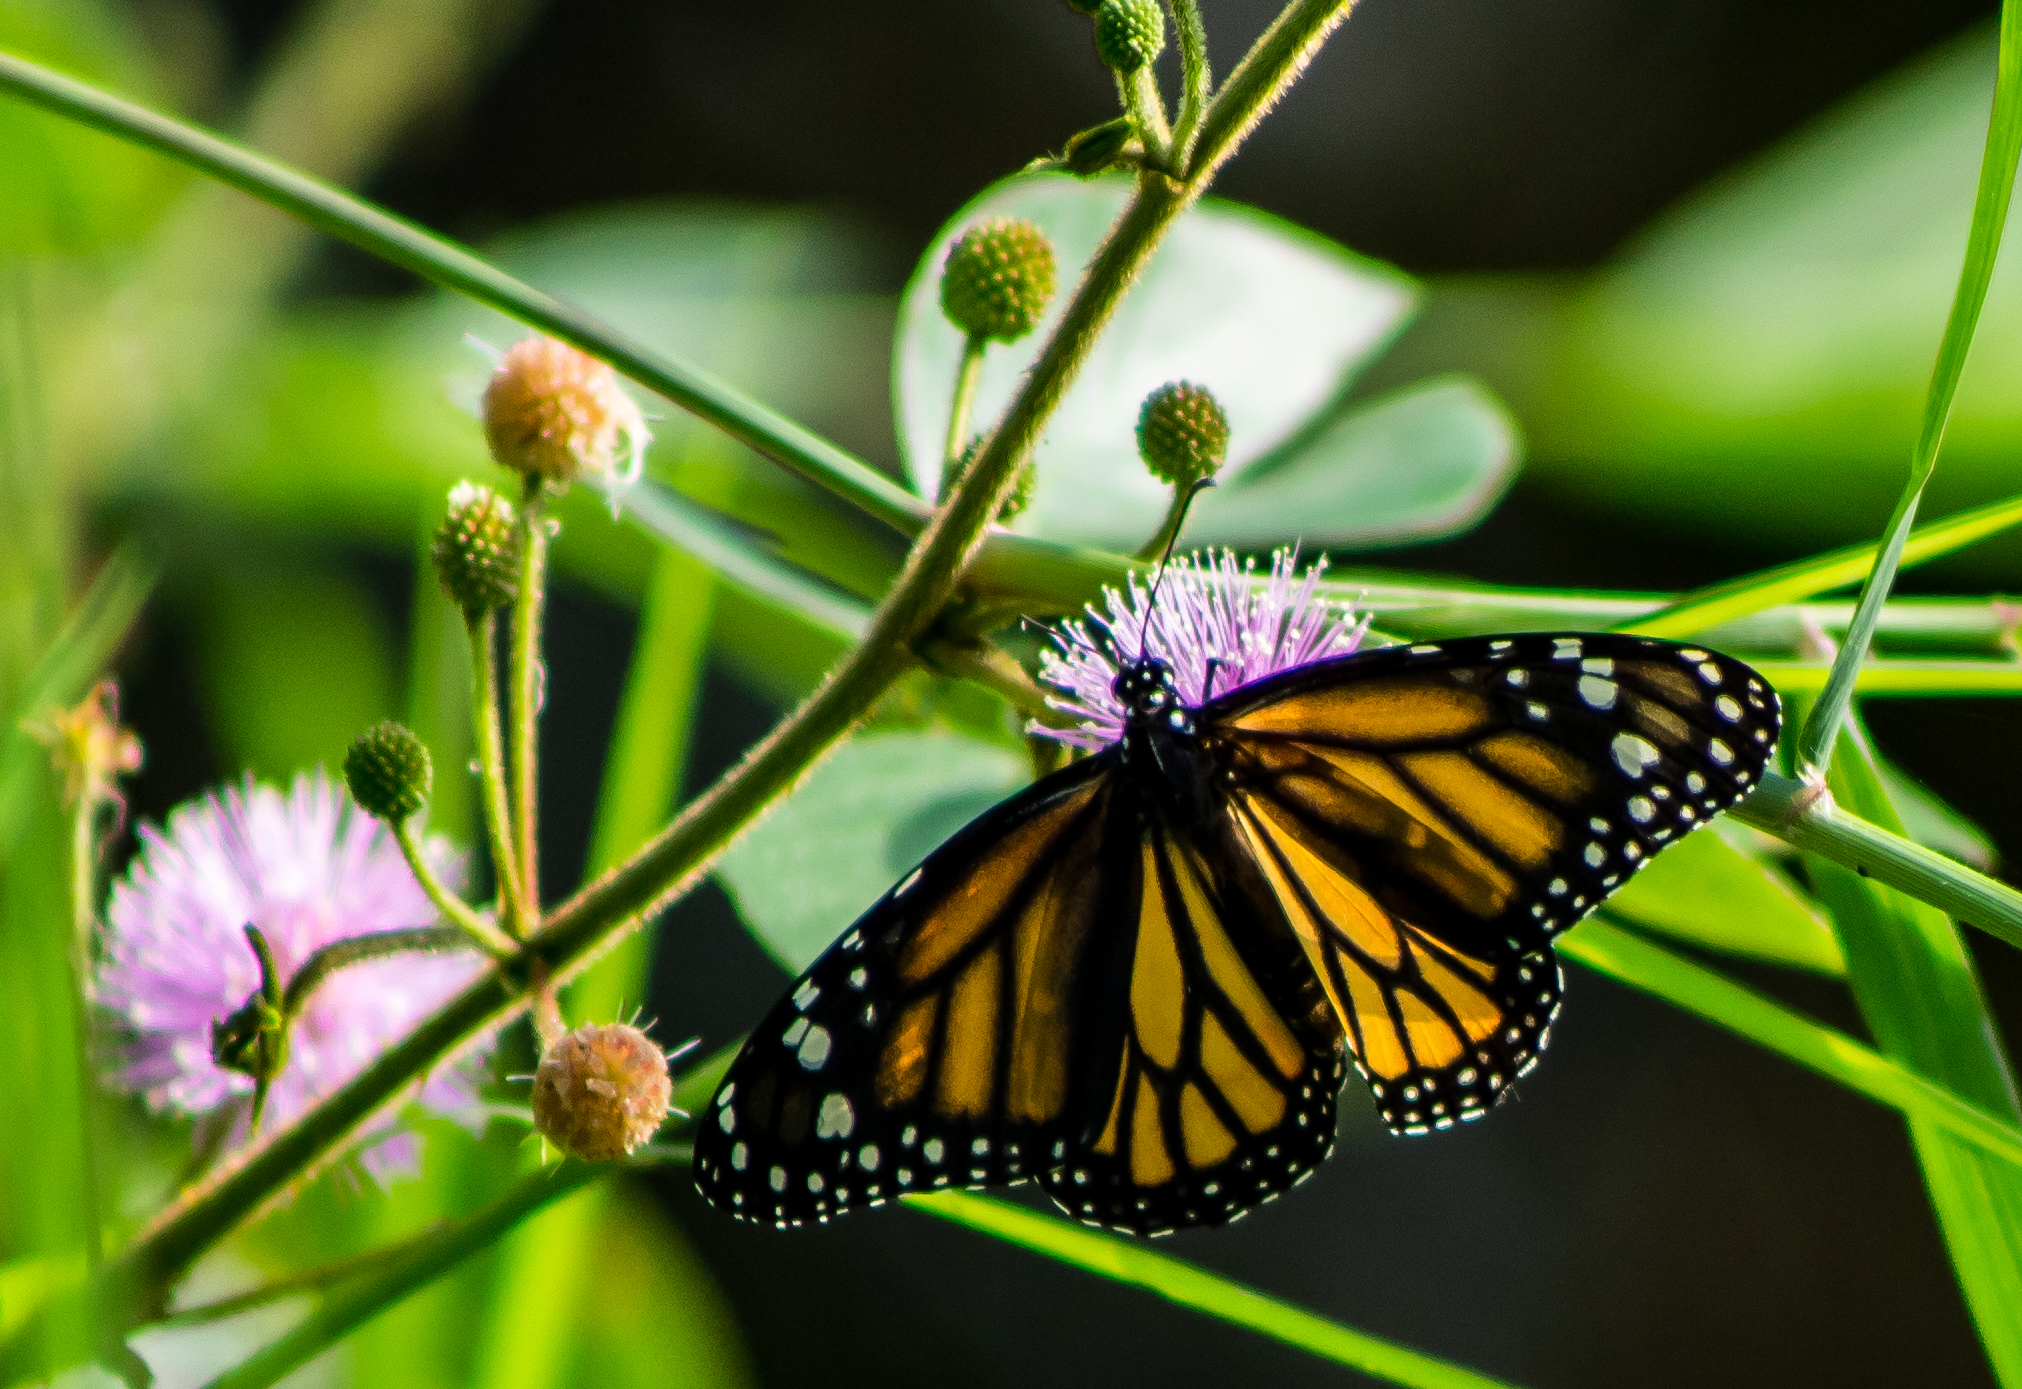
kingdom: Animalia
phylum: Arthropoda
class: Insecta
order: Lepidoptera
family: Nymphalidae
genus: Danaus
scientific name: Danaus plexippus
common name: Monarch
